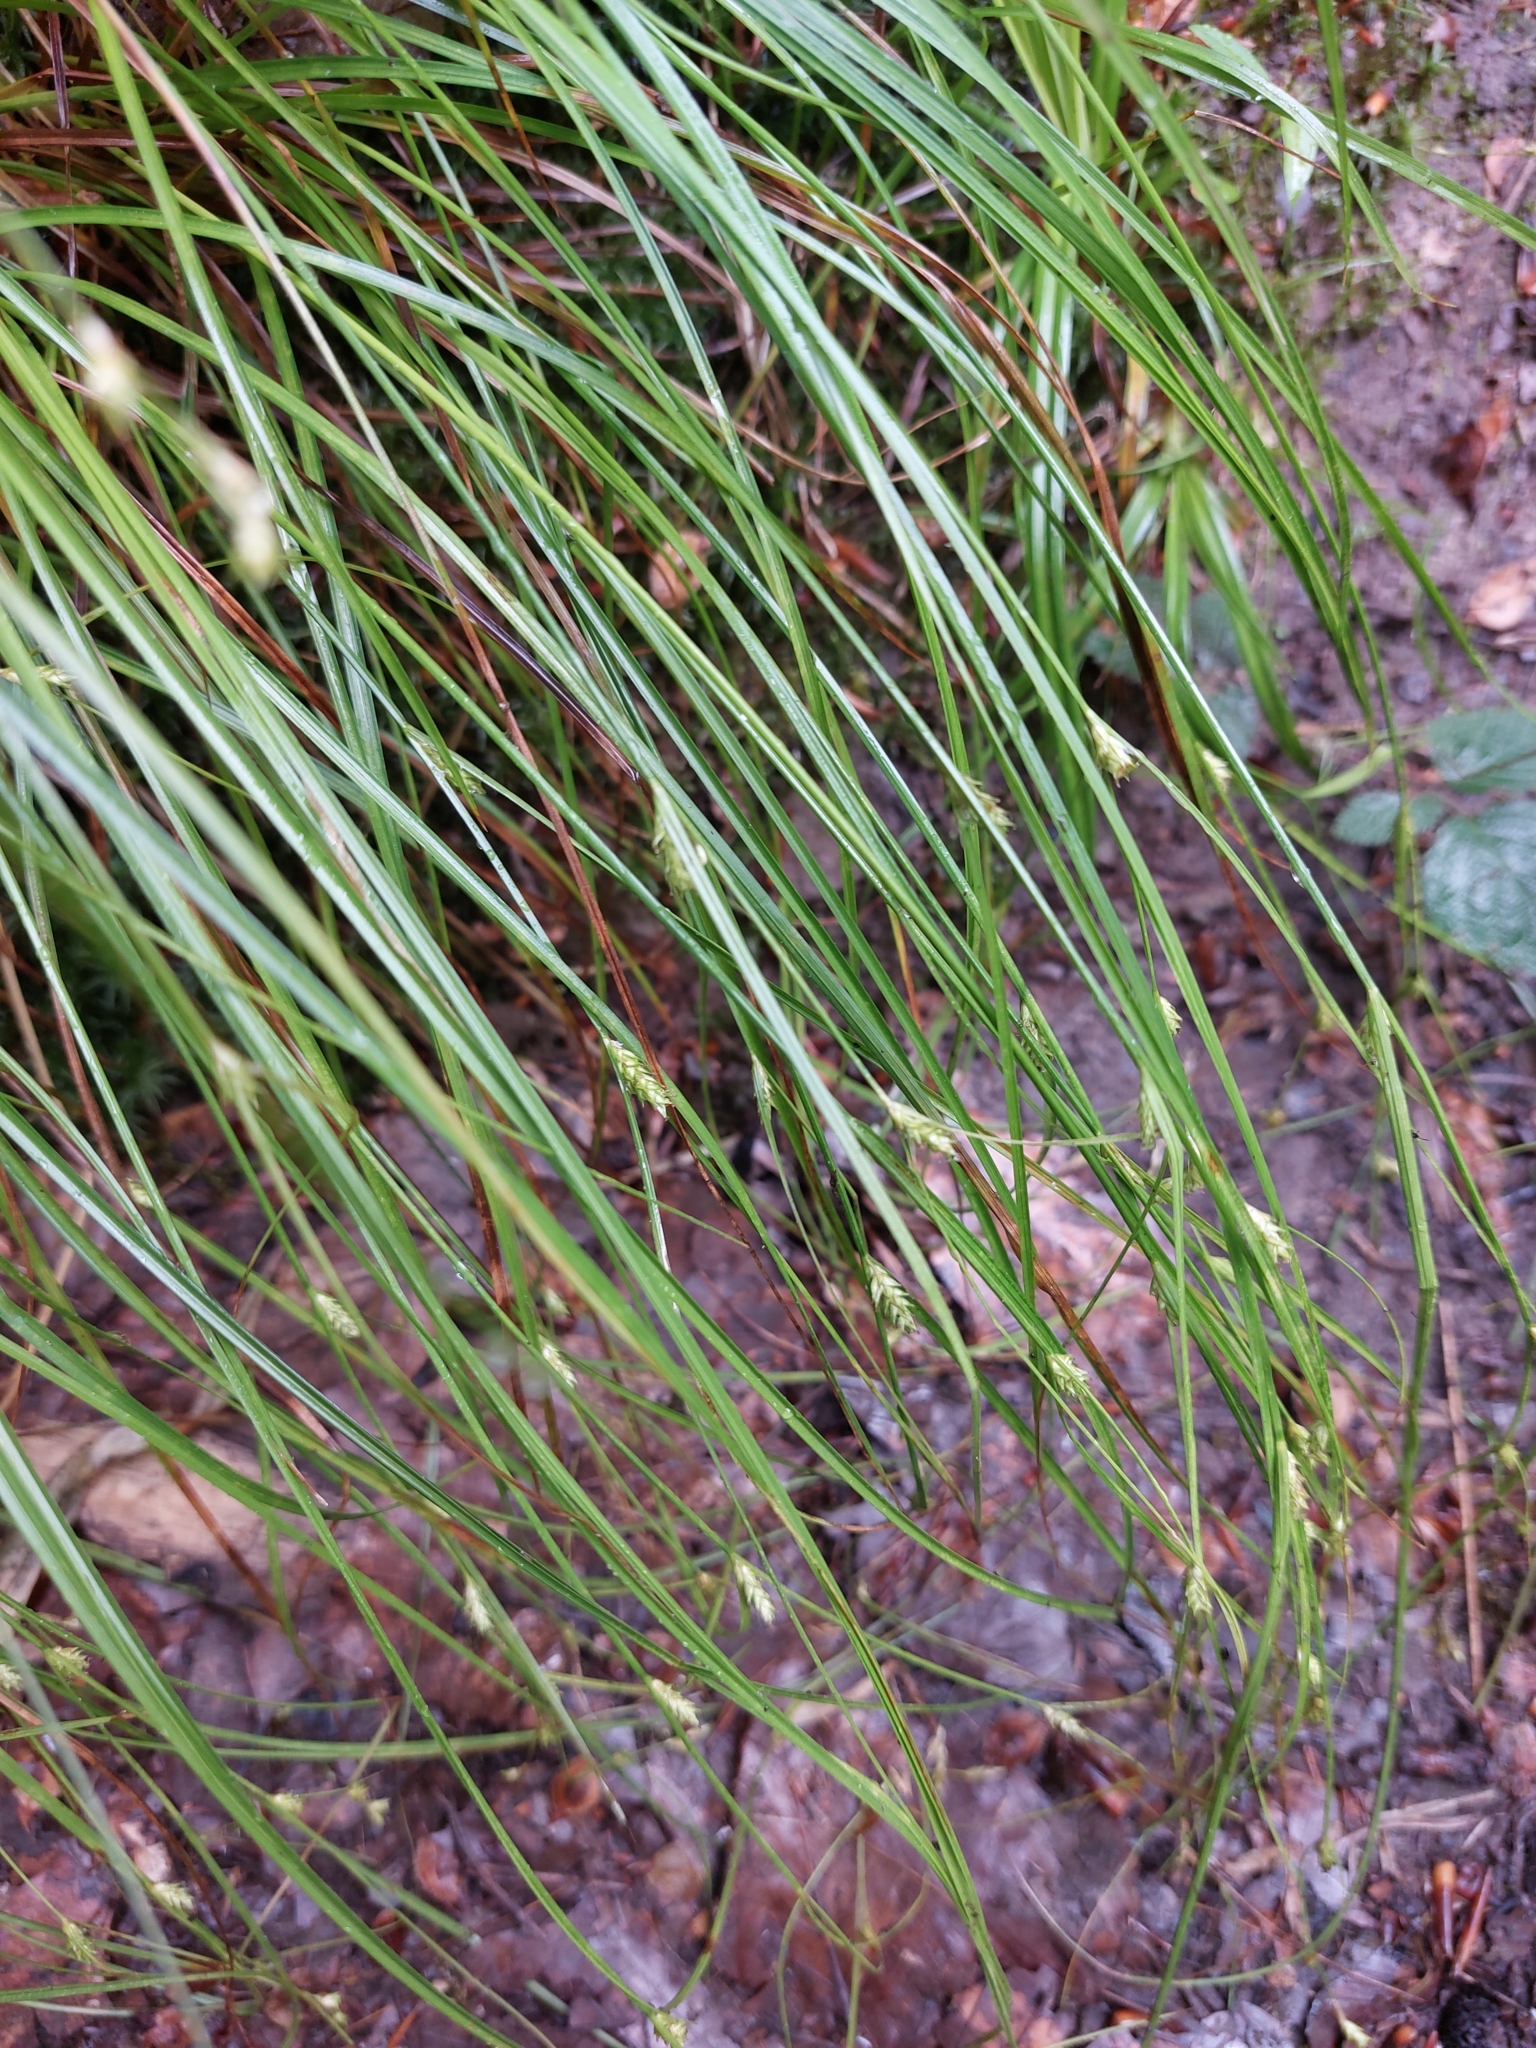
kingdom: Plantae
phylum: Tracheophyta
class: Liliopsida
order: Poales
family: Cyperaceae
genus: Carex
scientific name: Carex remota
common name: Remote sedge
